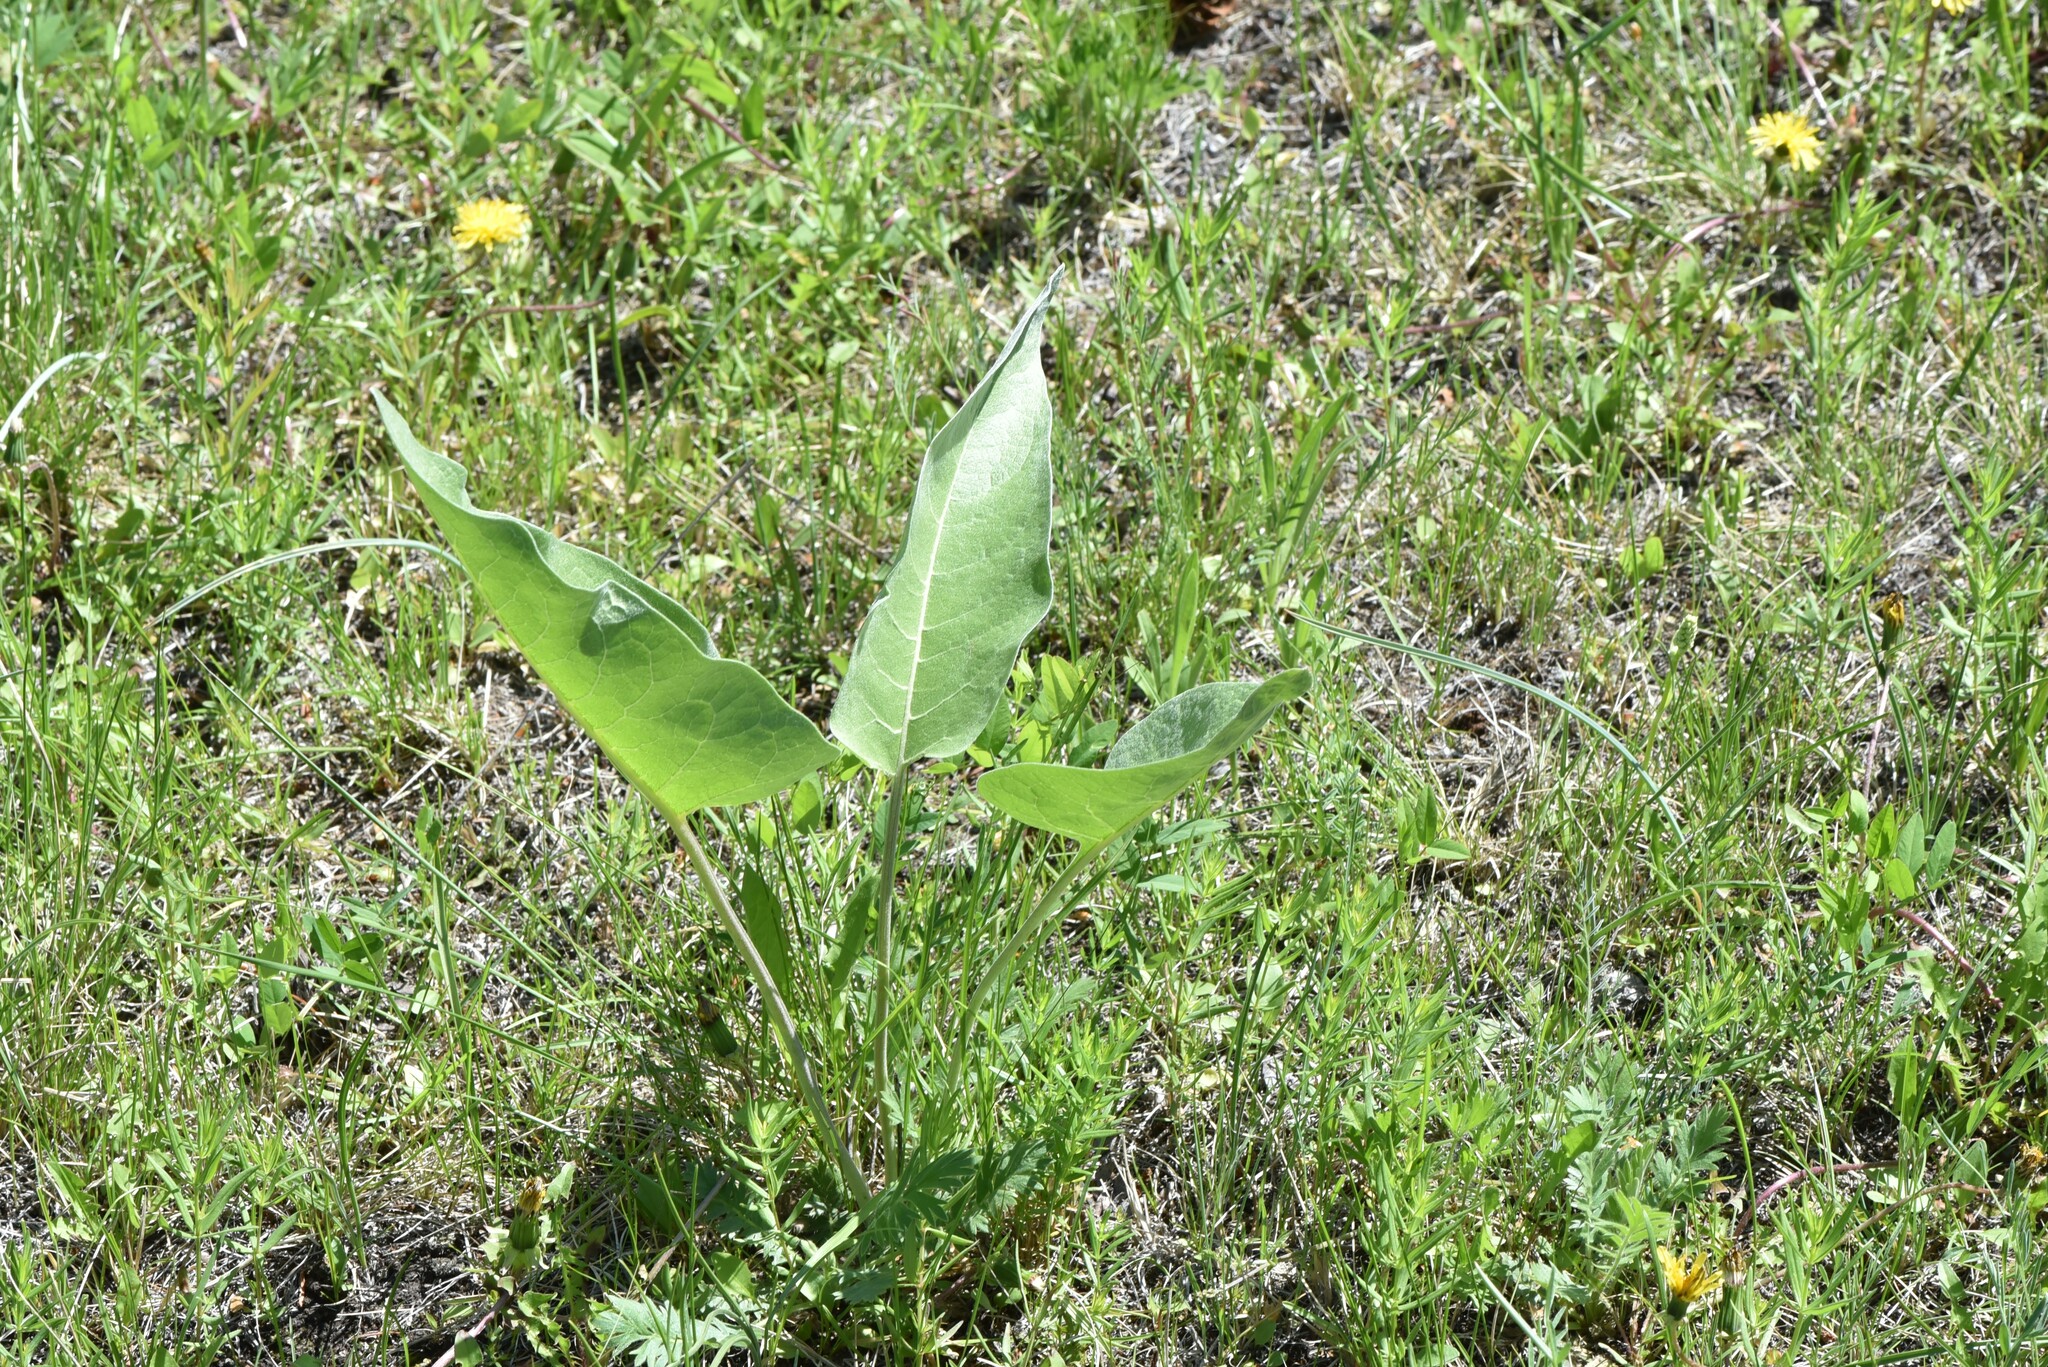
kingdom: Plantae
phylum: Tracheophyta
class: Magnoliopsida
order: Asterales
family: Asteraceae
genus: Wyethia
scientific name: Wyethia sagittata
